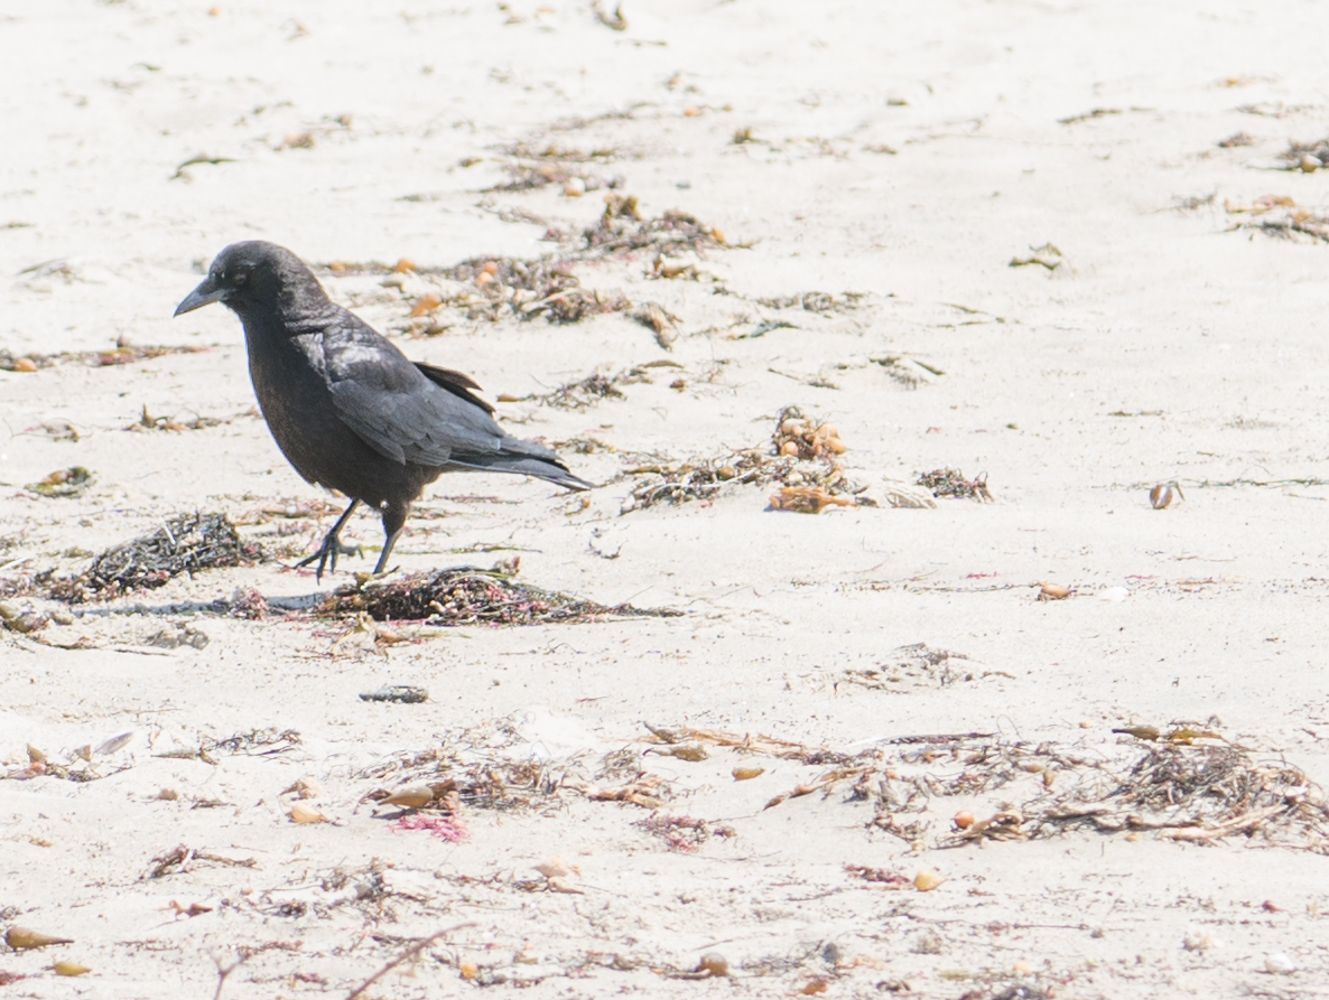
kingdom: Animalia
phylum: Chordata
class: Aves
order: Passeriformes
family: Corvidae
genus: Corvus
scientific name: Corvus brachyrhynchos
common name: American crow
